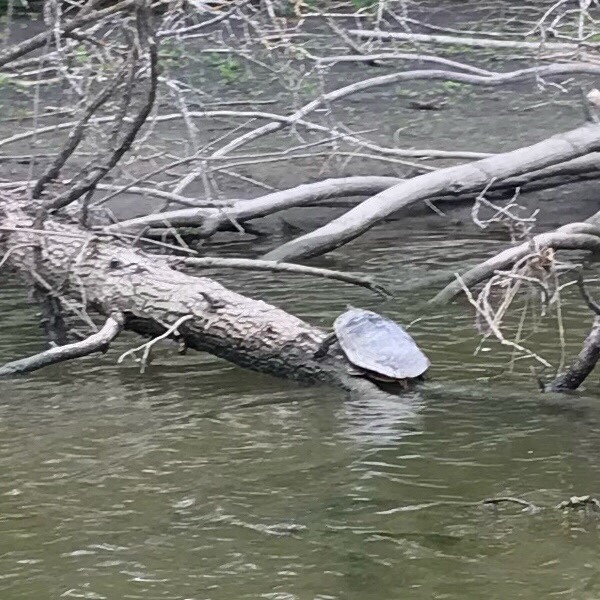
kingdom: Animalia
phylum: Chordata
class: Testudines
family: Emydidae
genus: Chrysemys
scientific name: Chrysemys picta
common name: Painted turtle
